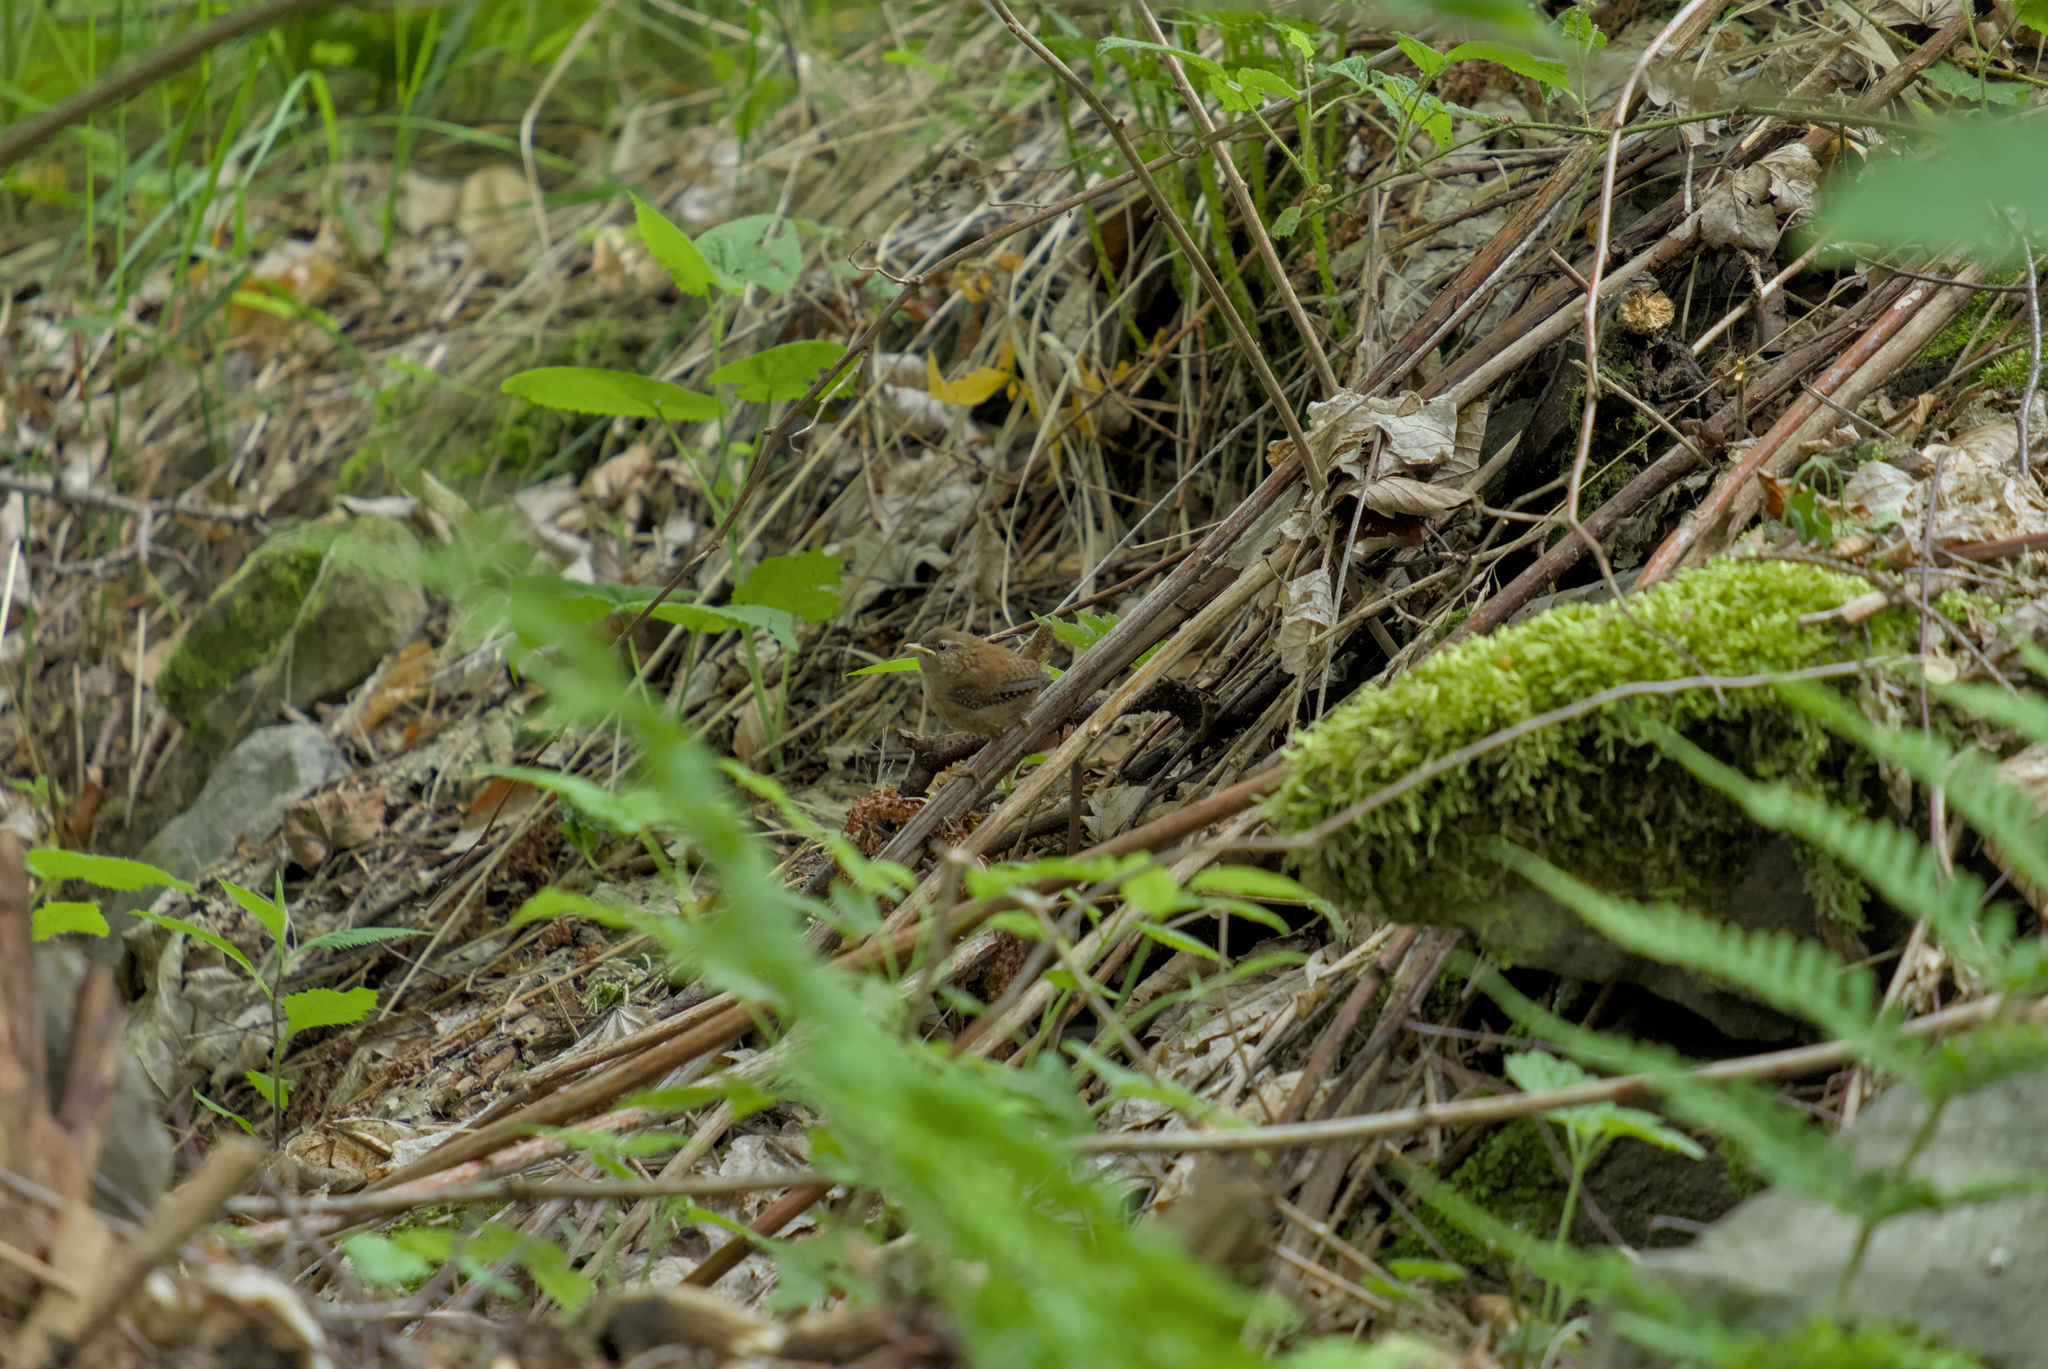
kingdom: Animalia
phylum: Chordata
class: Aves
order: Passeriformes
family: Troglodytidae
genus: Troglodytes
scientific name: Troglodytes troglodytes
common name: Eurasian wren
